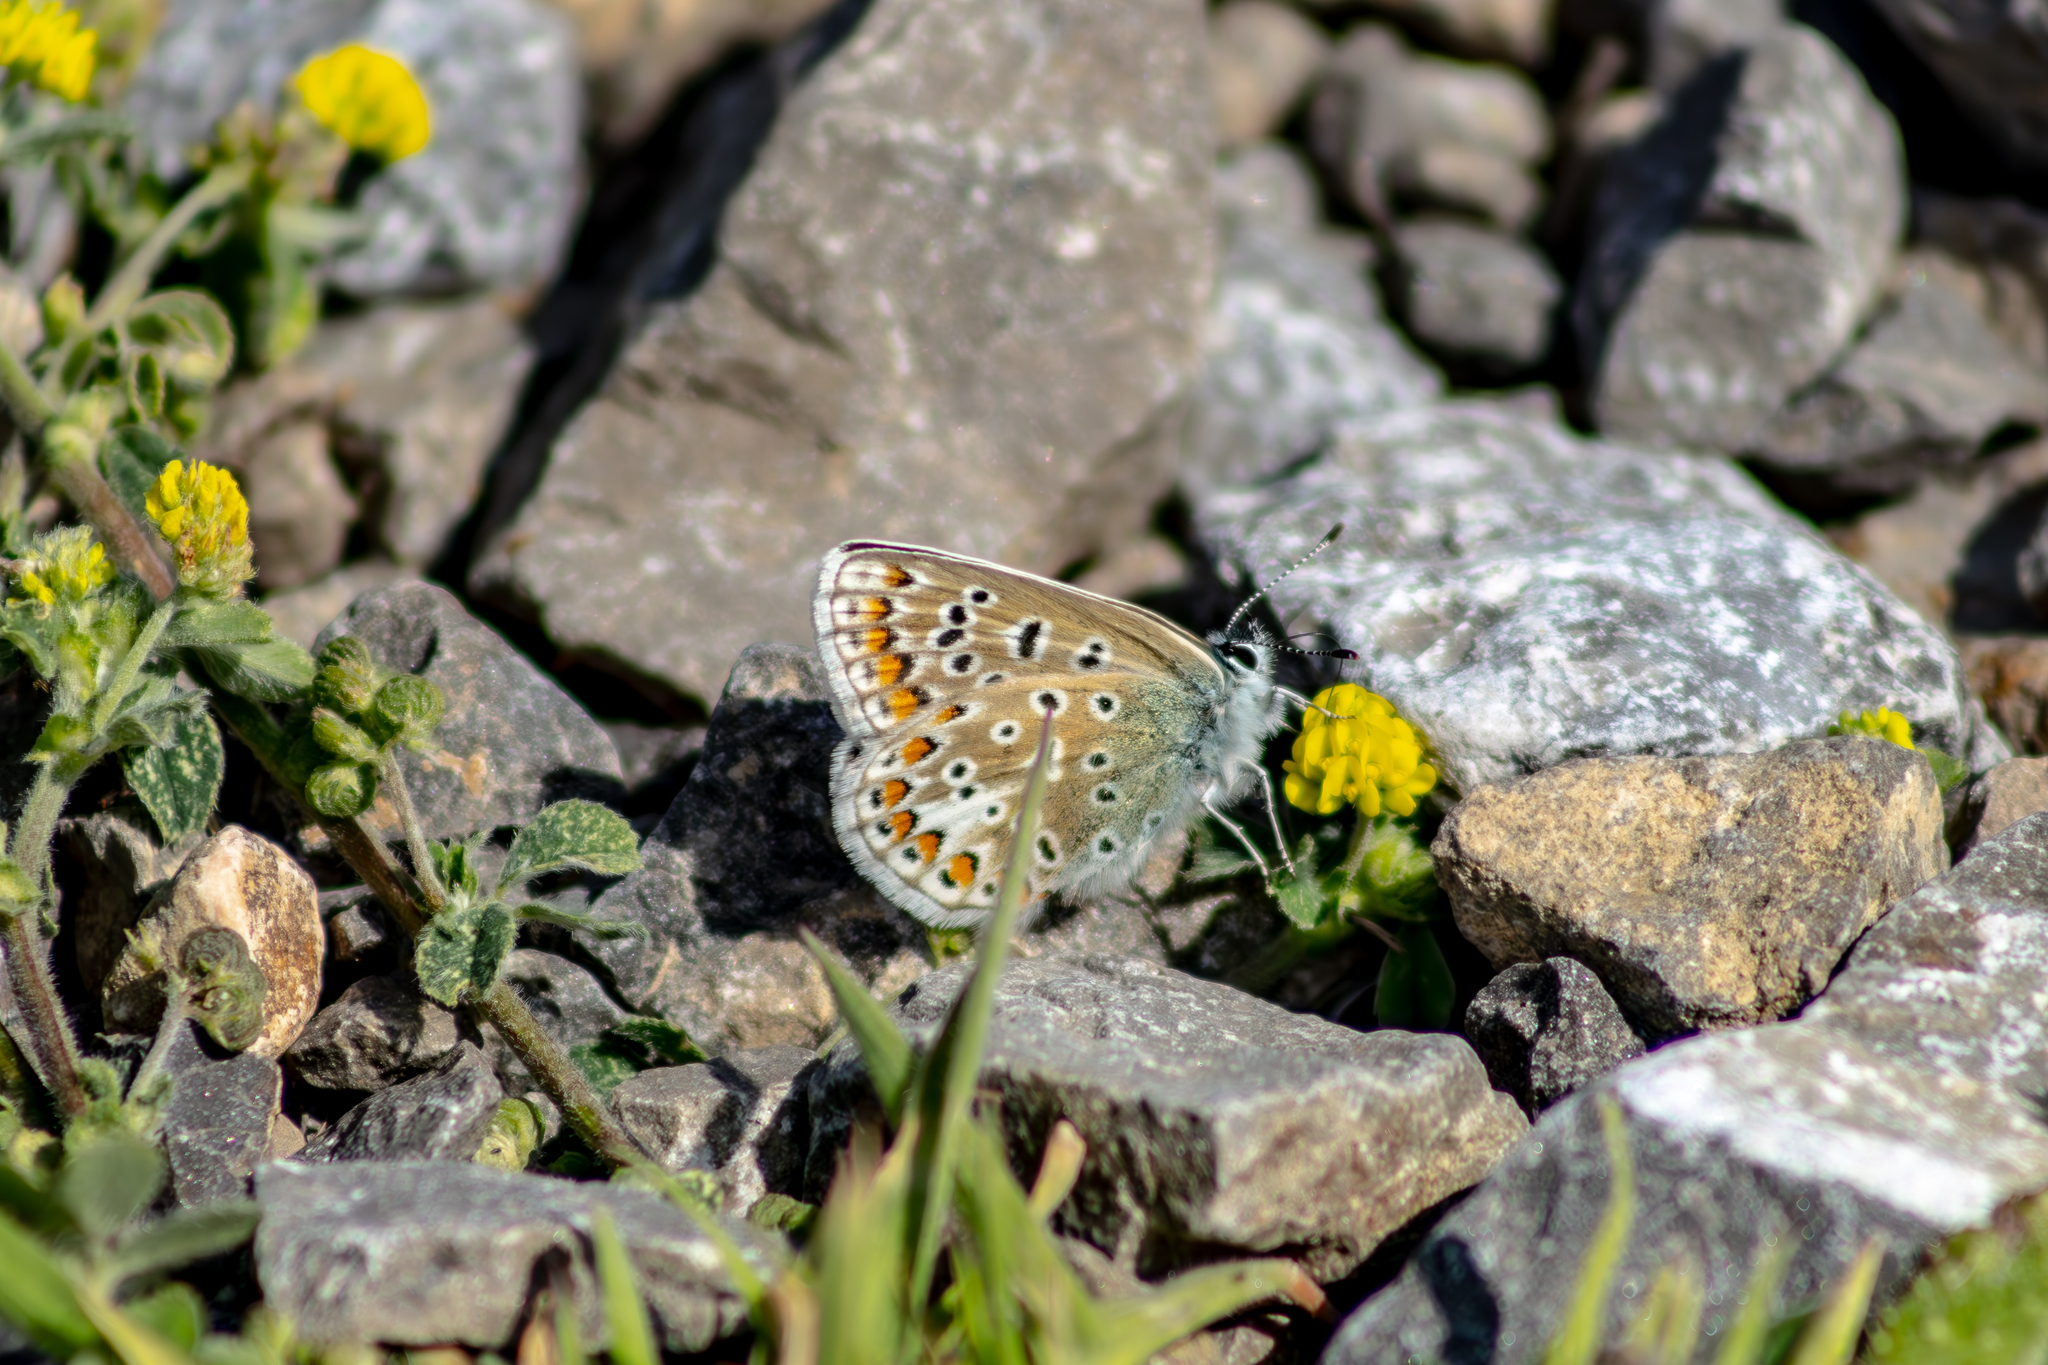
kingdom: Animalia
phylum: Arthropoda
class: Insecta
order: Lepidoptera
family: Lycaenidae
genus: Polyommatus
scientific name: Polyommatus icarus
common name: Common blue
